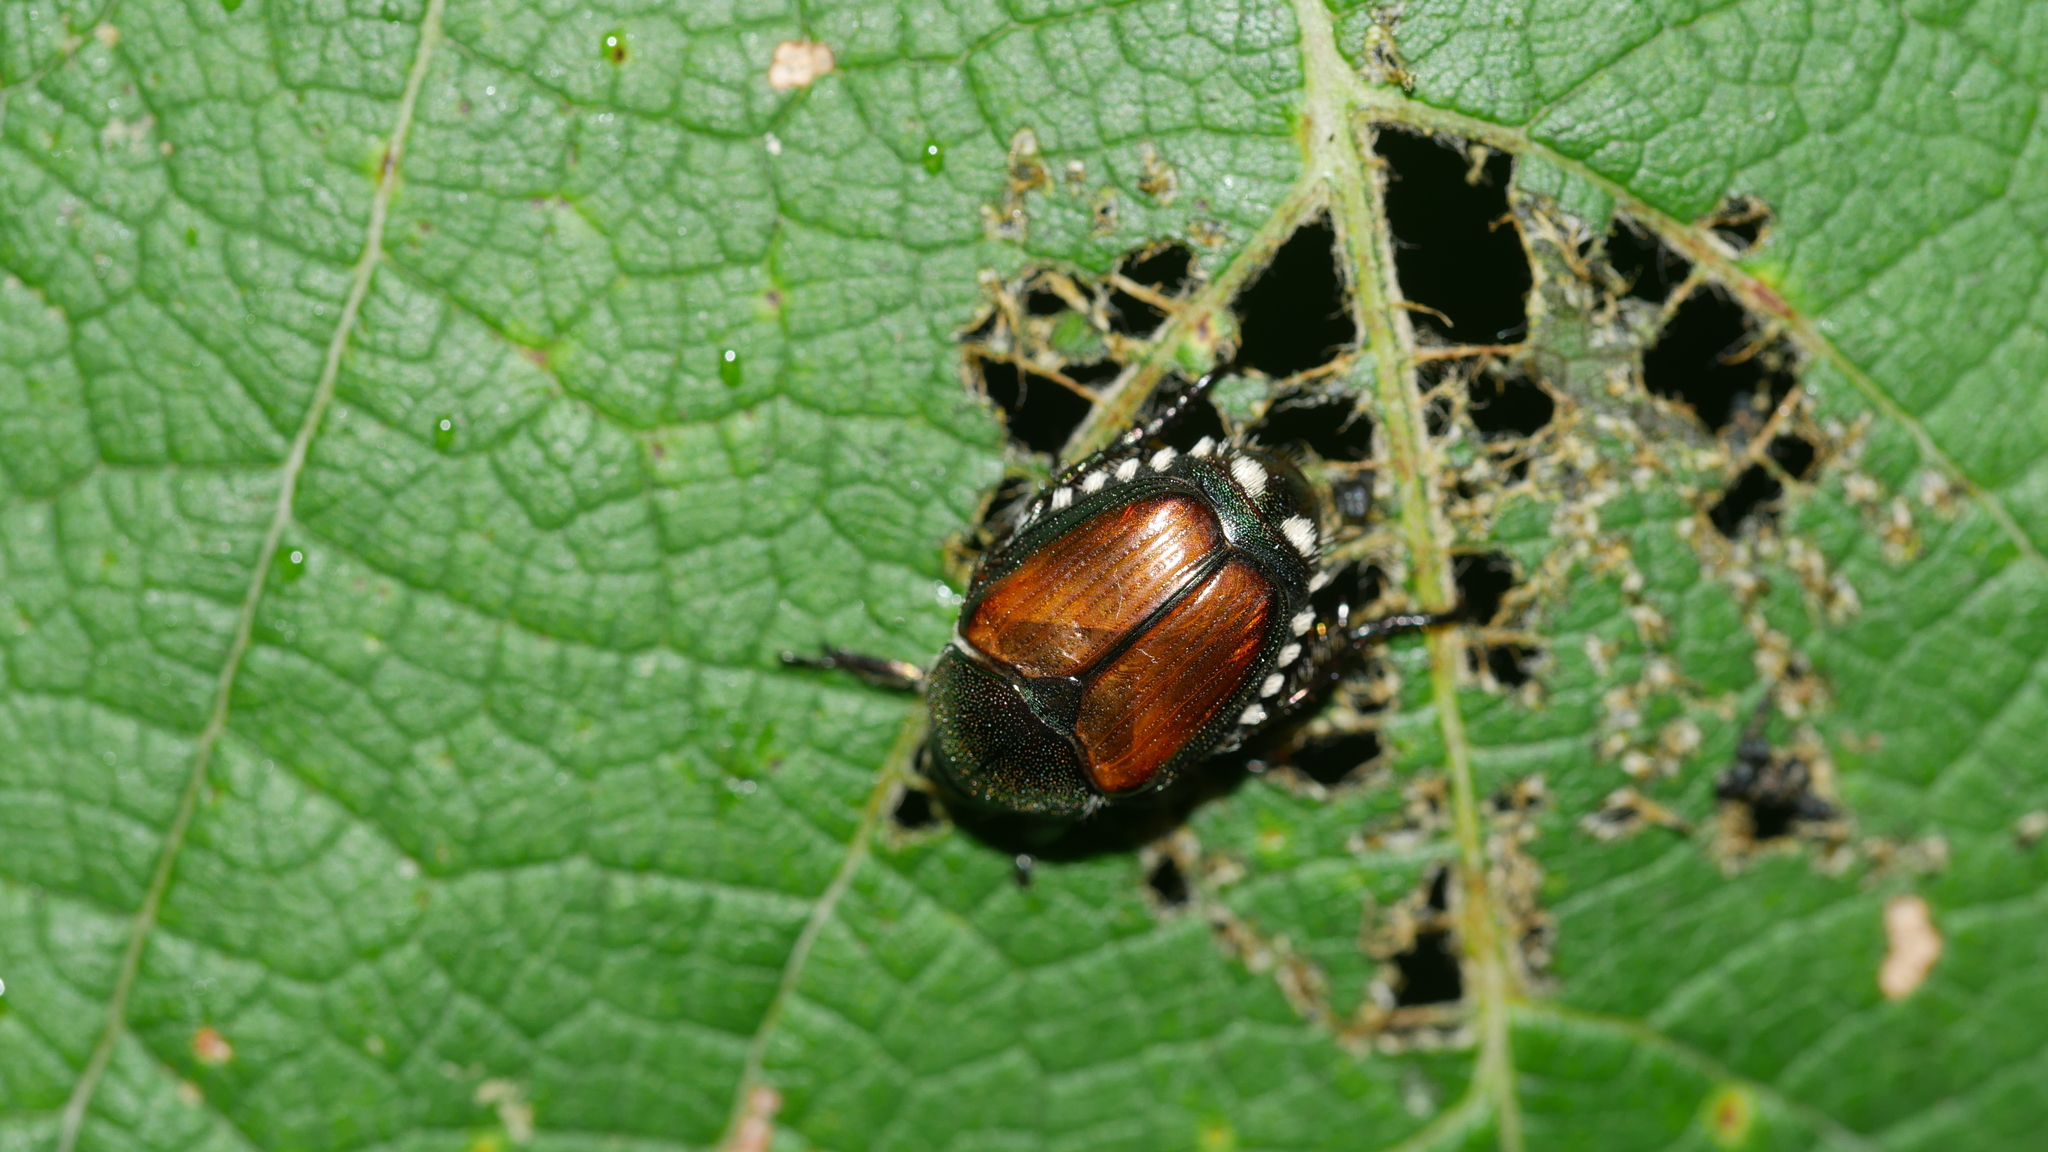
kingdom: Animalia
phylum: Arthropoda
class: Insecta
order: Coleoptera
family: Scarabaeidae
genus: Popillia
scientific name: Popillia japonica
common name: Japanese beetle
